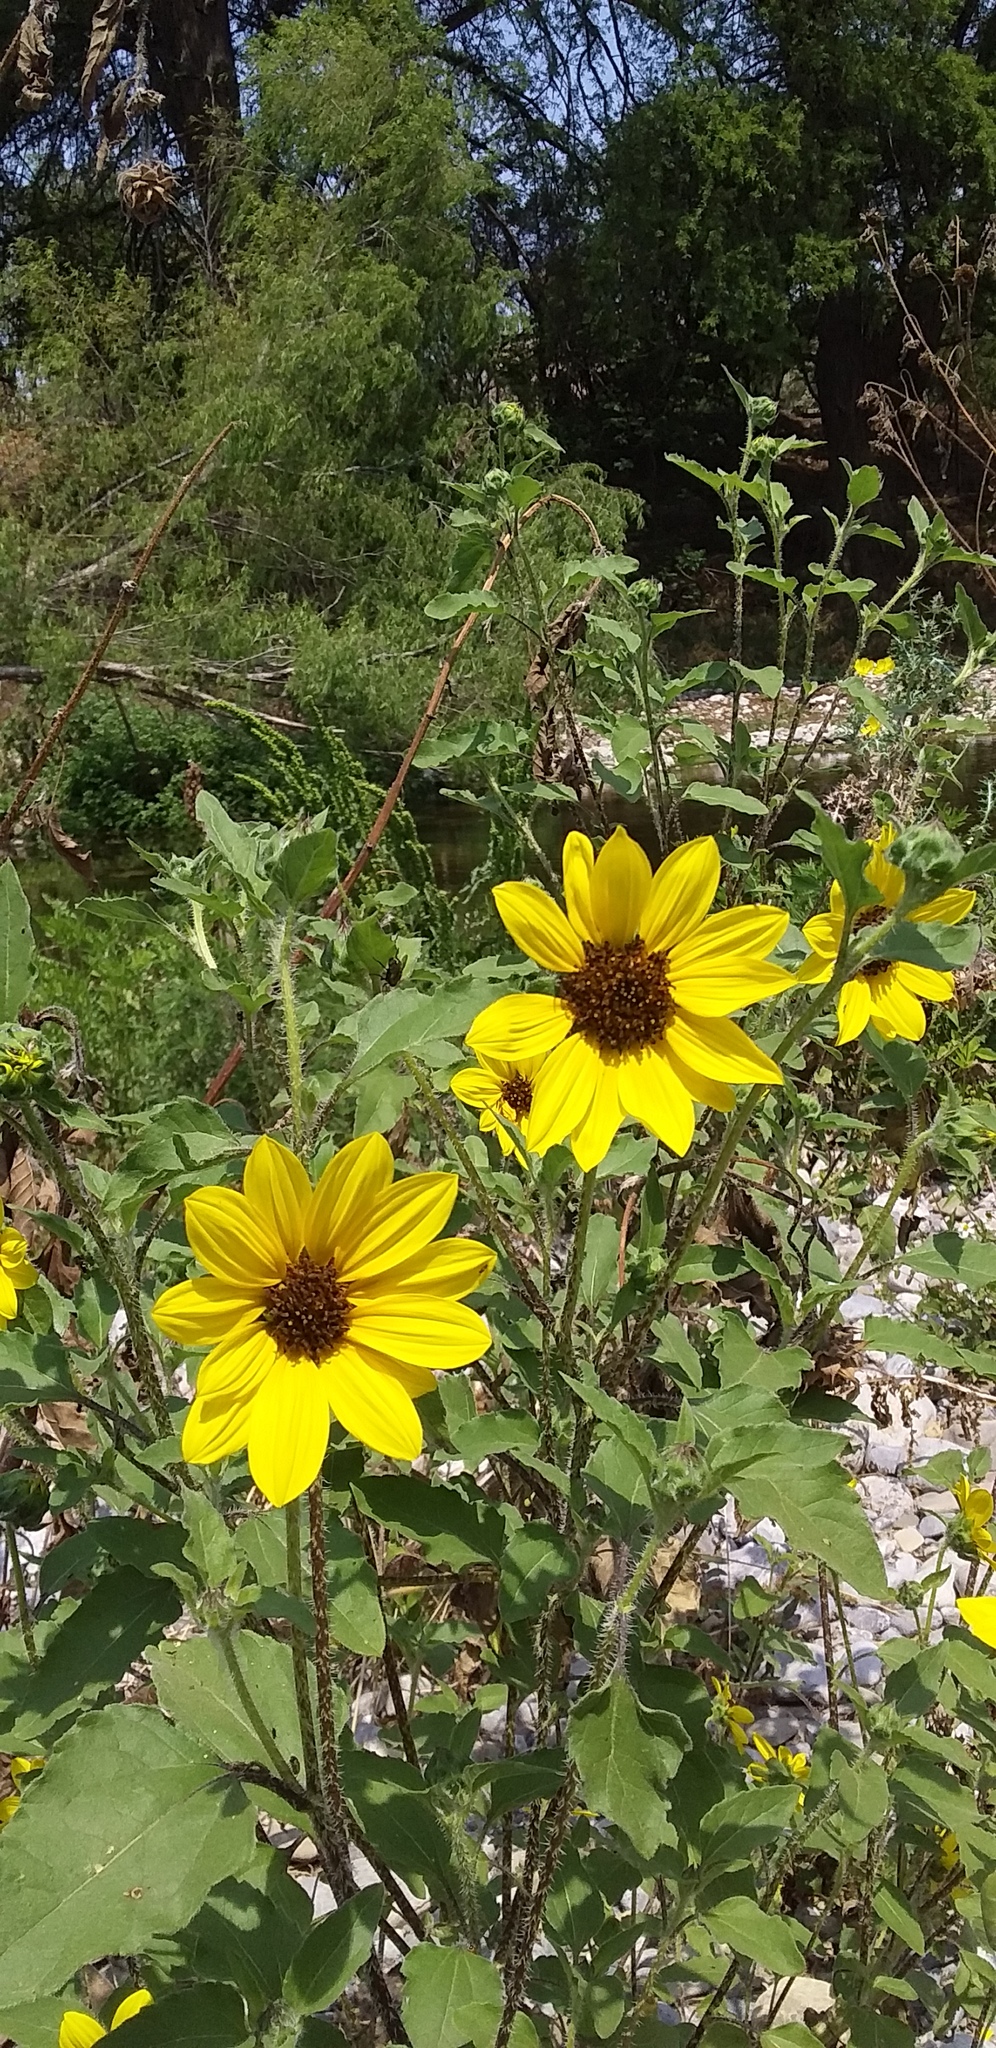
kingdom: Plantae
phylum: Tracheophyta
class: Magnoliopsida
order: Asterales
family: Asteraceae
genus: Helianthus
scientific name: Helianthus annuus
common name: Sunflower
